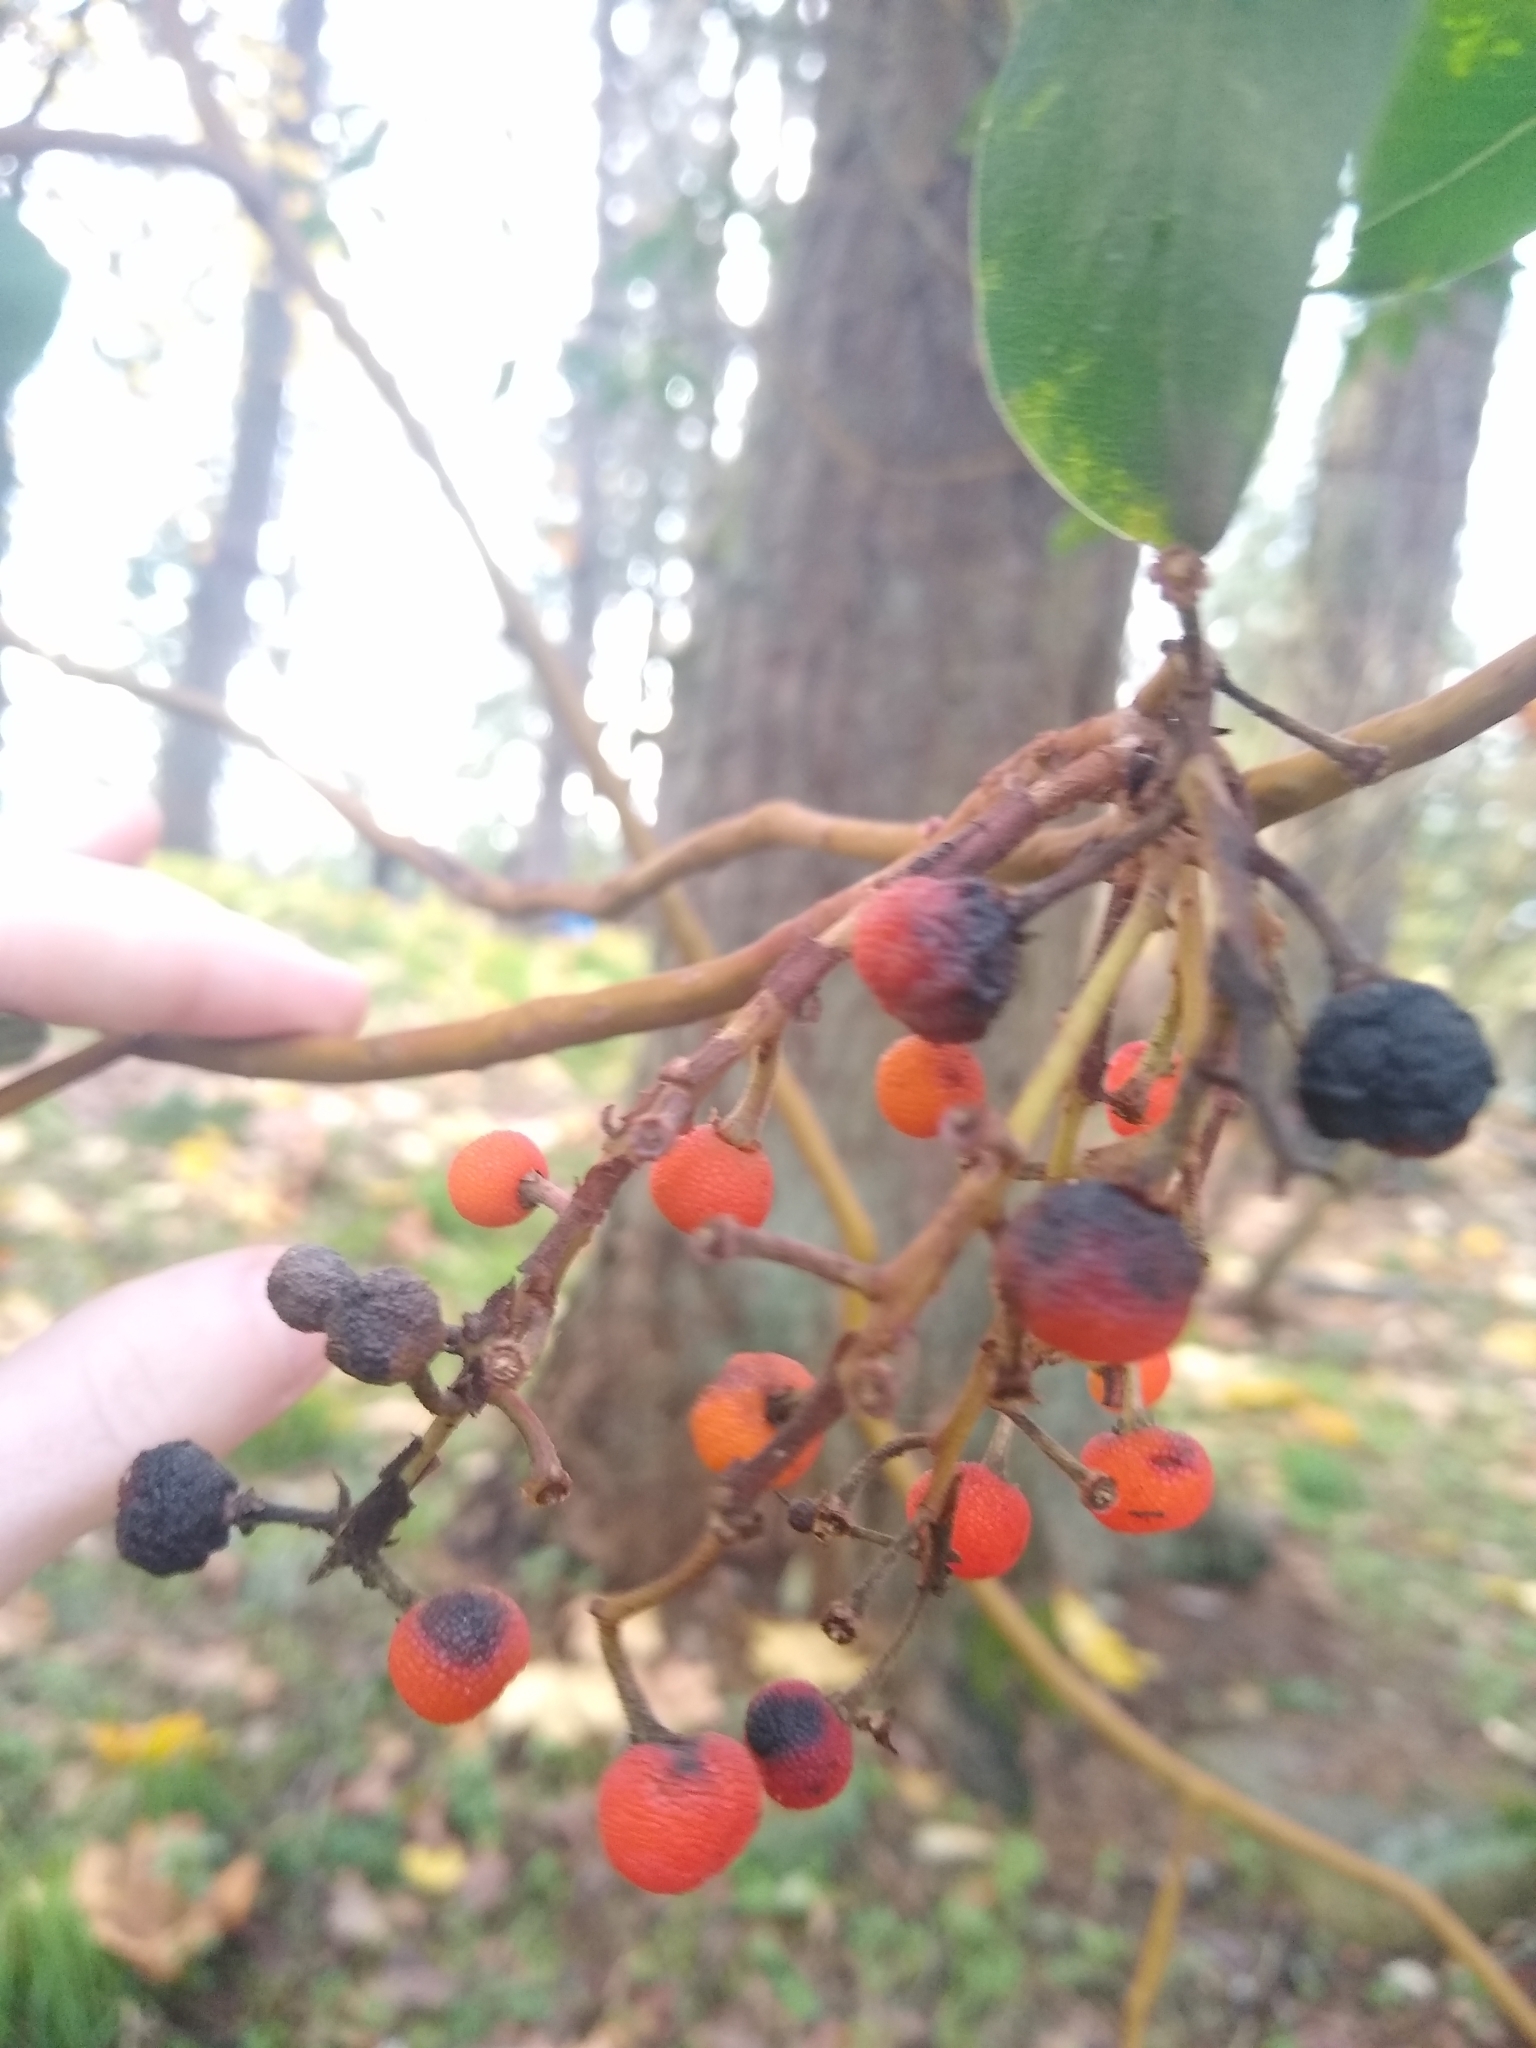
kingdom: Plantae
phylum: Tracheophyta
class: Magnoliopsida
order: Ericales
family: Ericaceae
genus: Arbutus
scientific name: Arbutus menziesii
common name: Pacific madrone
